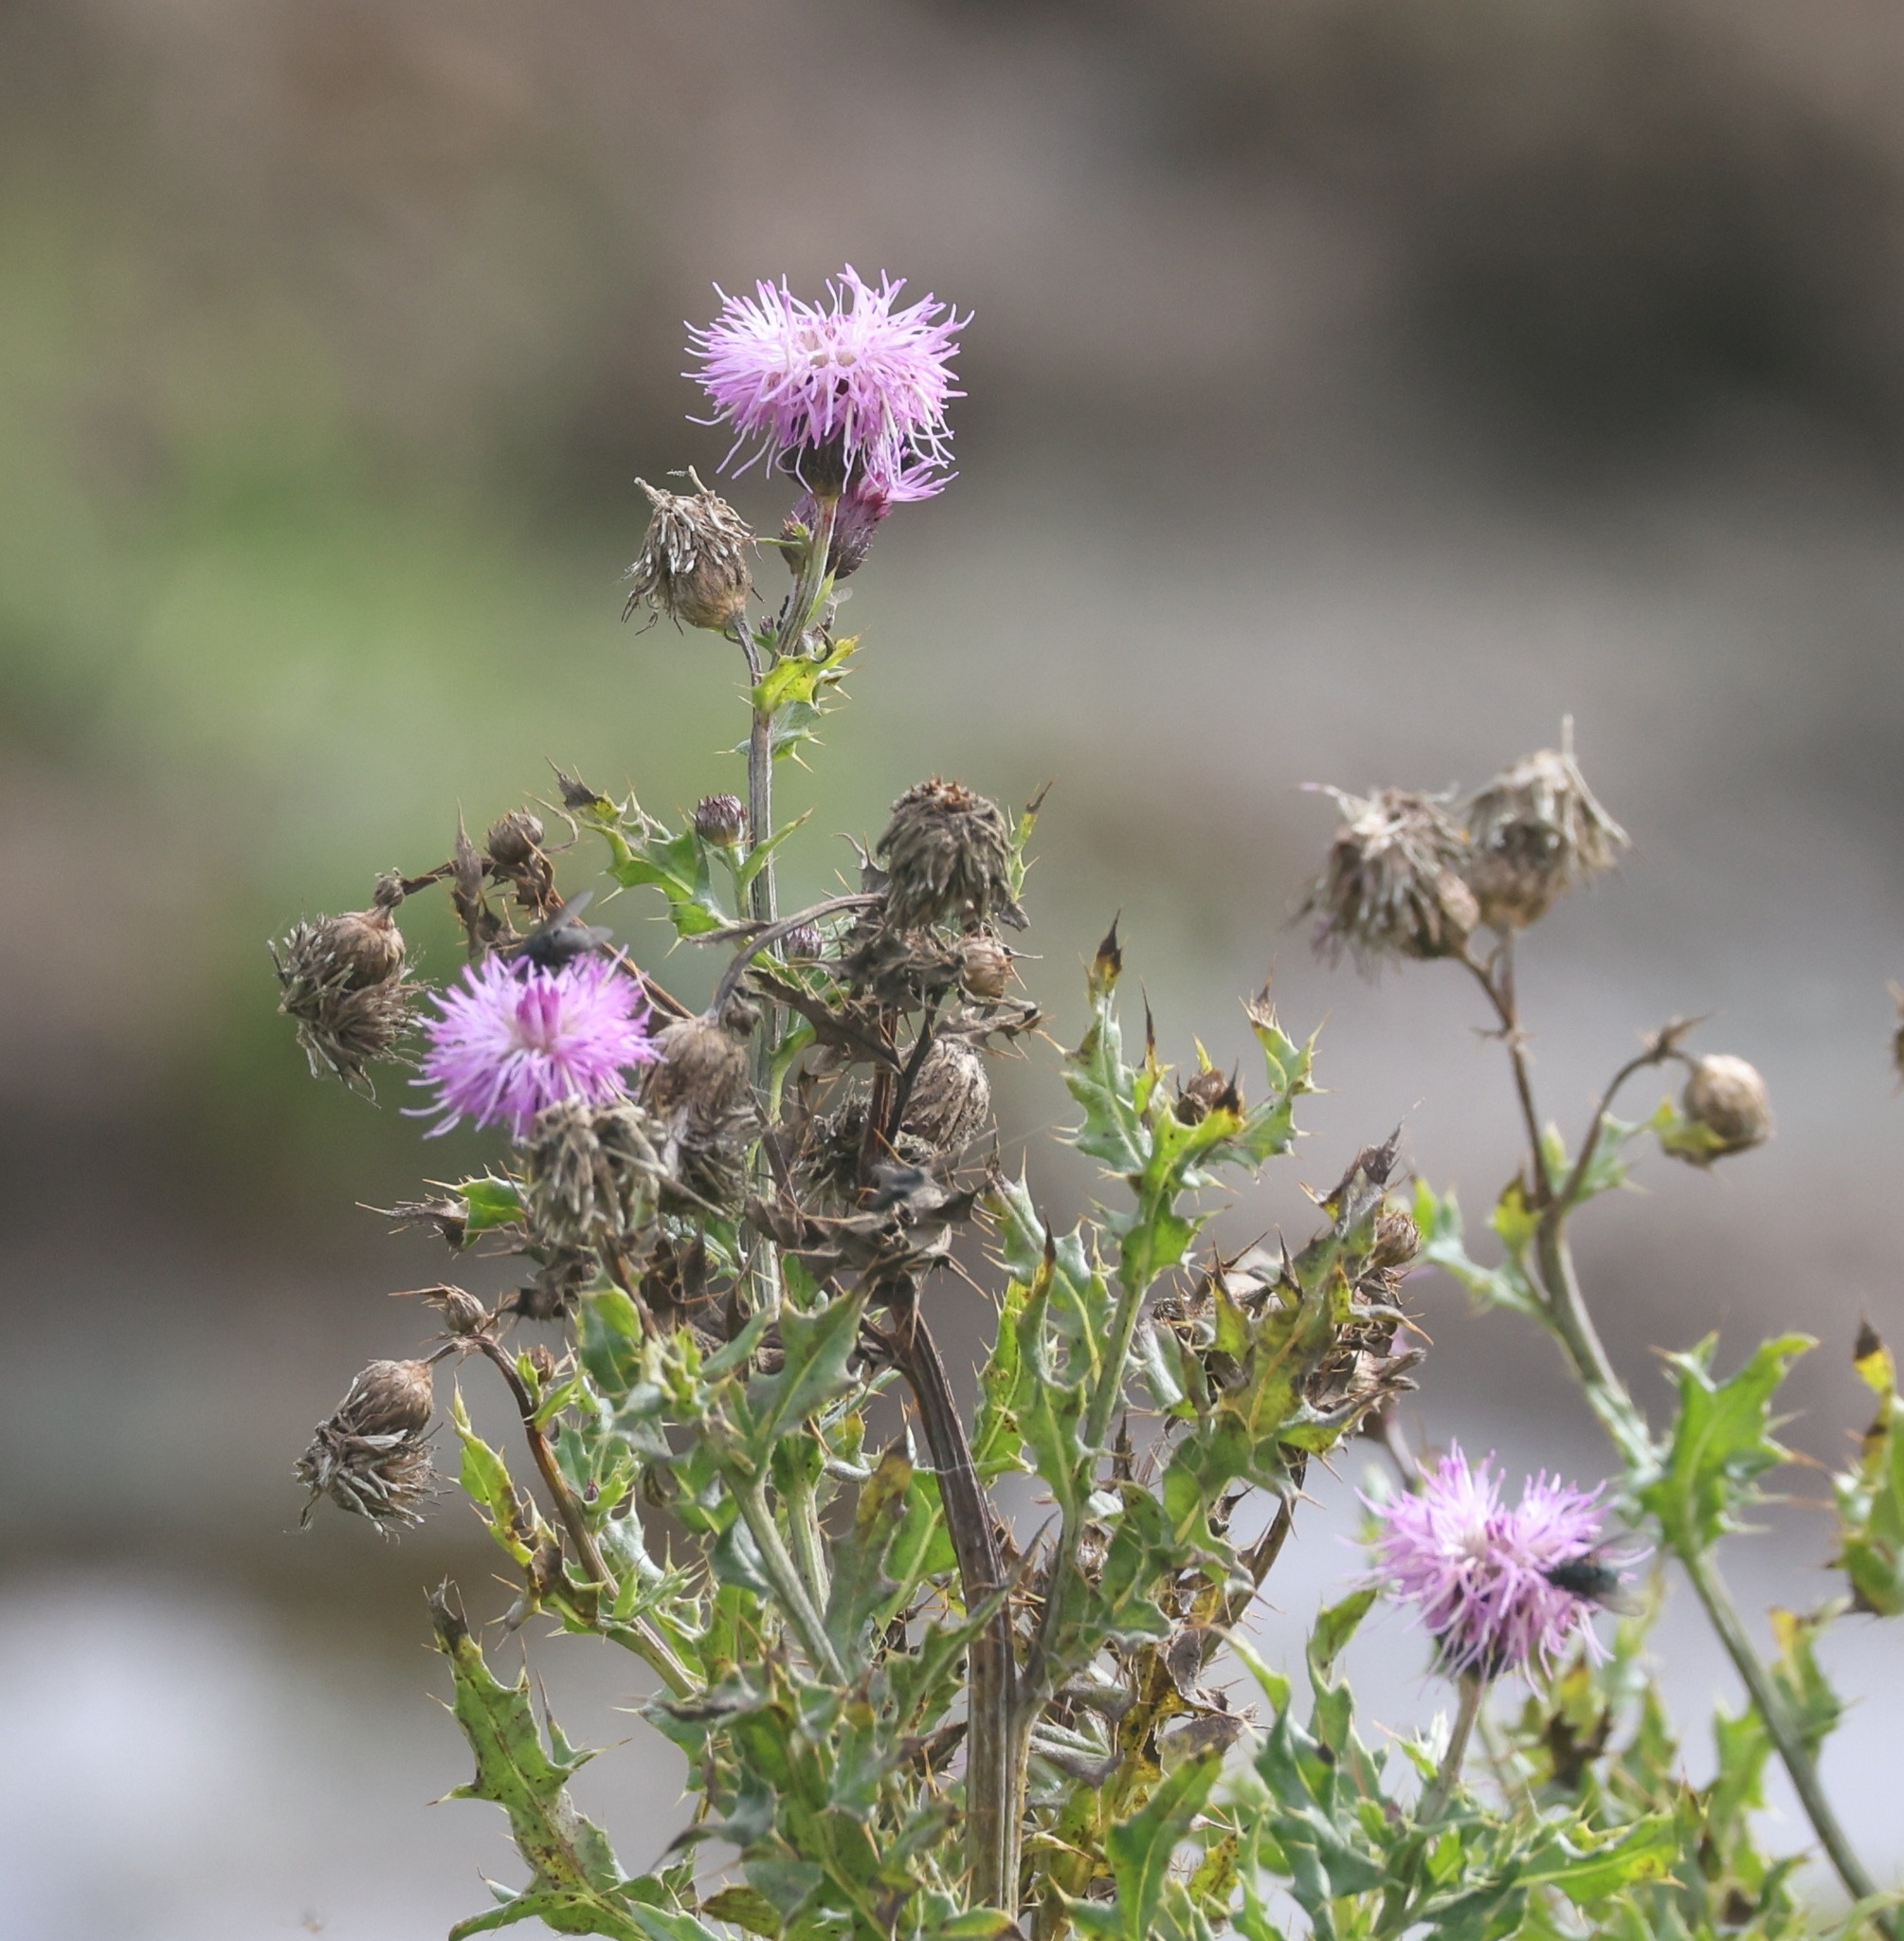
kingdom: Plantae
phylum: Tracheophyta
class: Magnoliopsida
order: Asterales
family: Asteraceae
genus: Cirsium
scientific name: Cirsium arvense
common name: Creeping thistle
